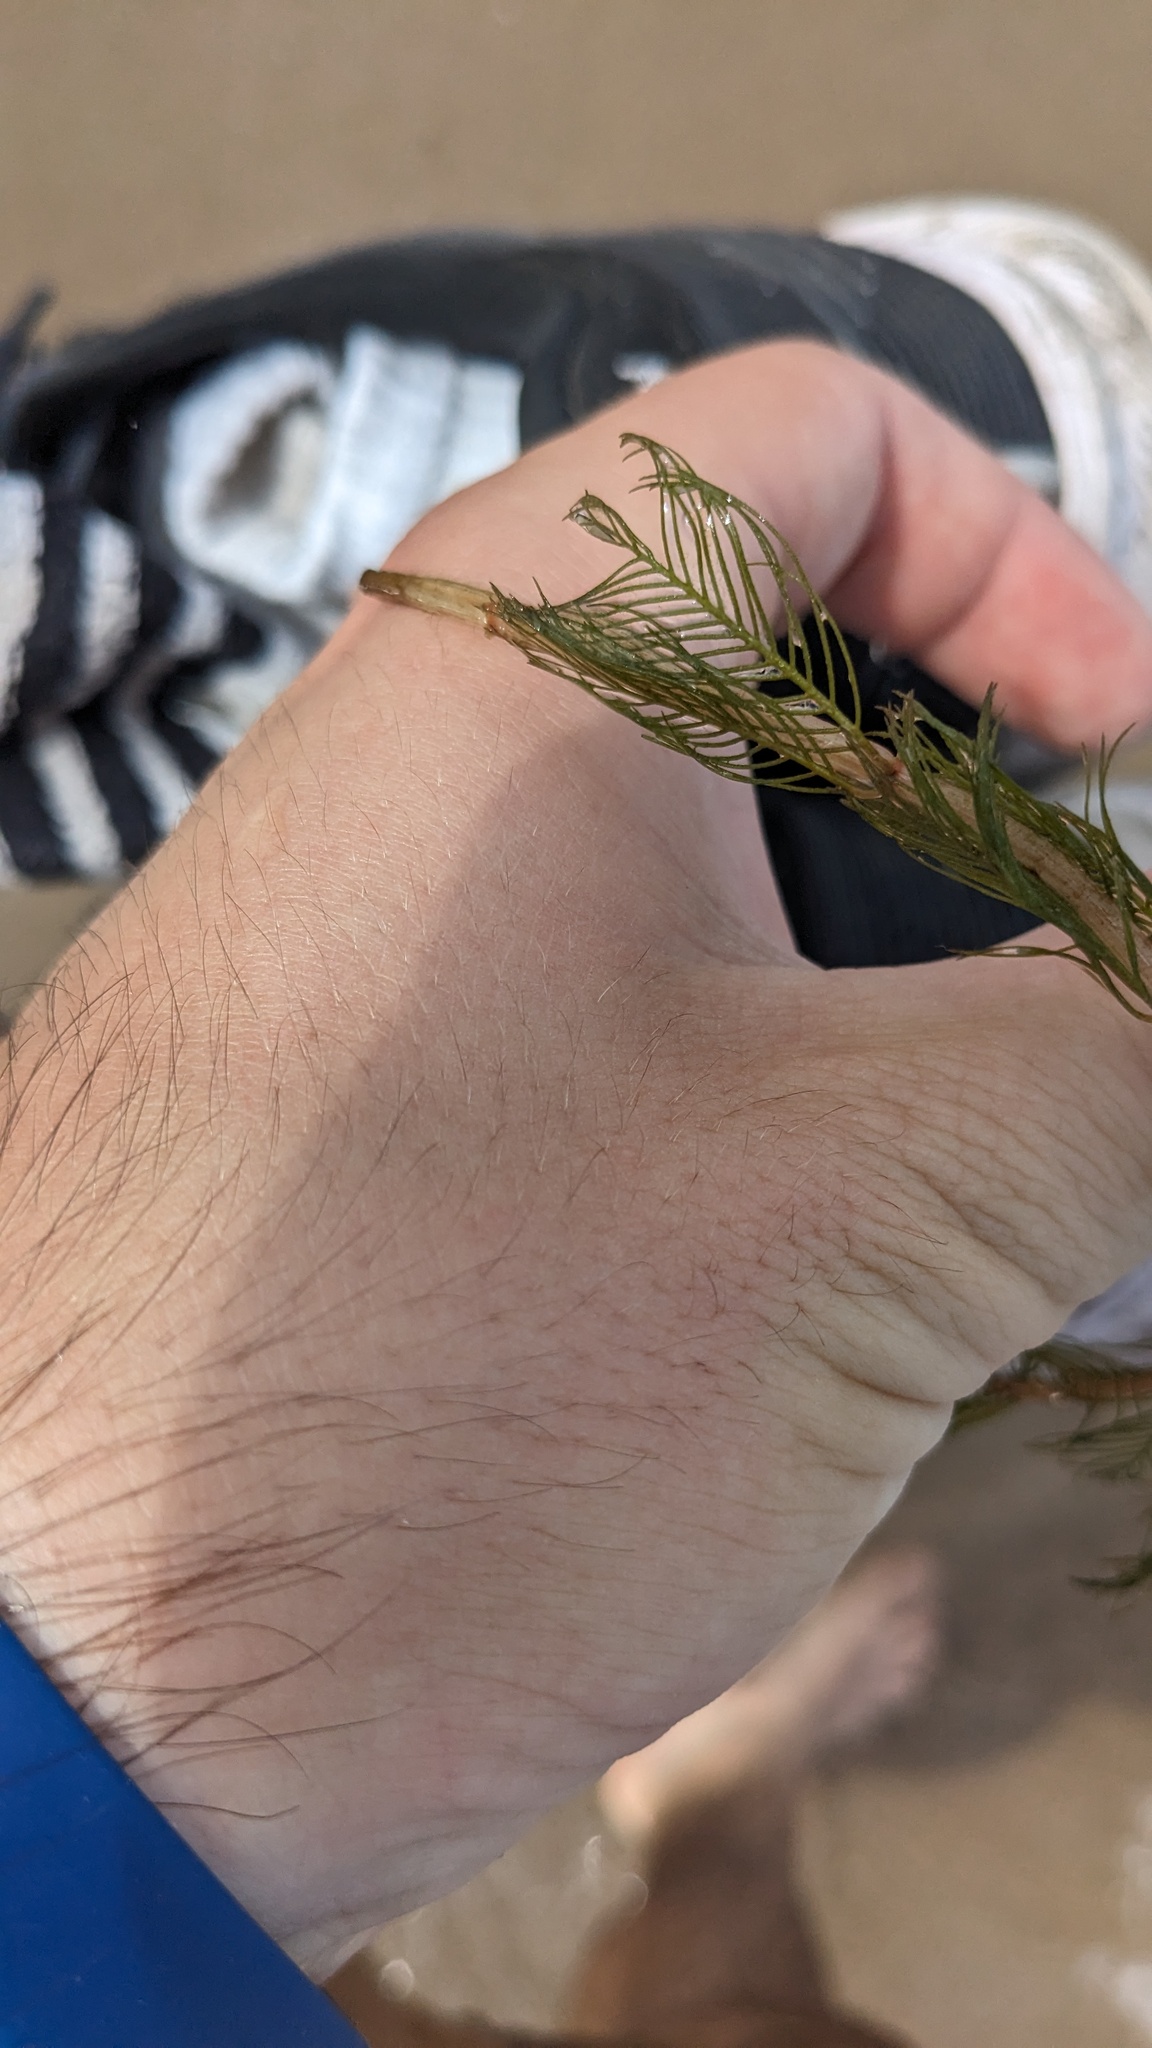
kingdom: Plantae
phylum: Tracheophyta
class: Magnoliopsida
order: Saxifragales
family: Haloragaceae
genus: Myriophyllum
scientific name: Myriophyllum spicatum
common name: Spiked water-milfoil
